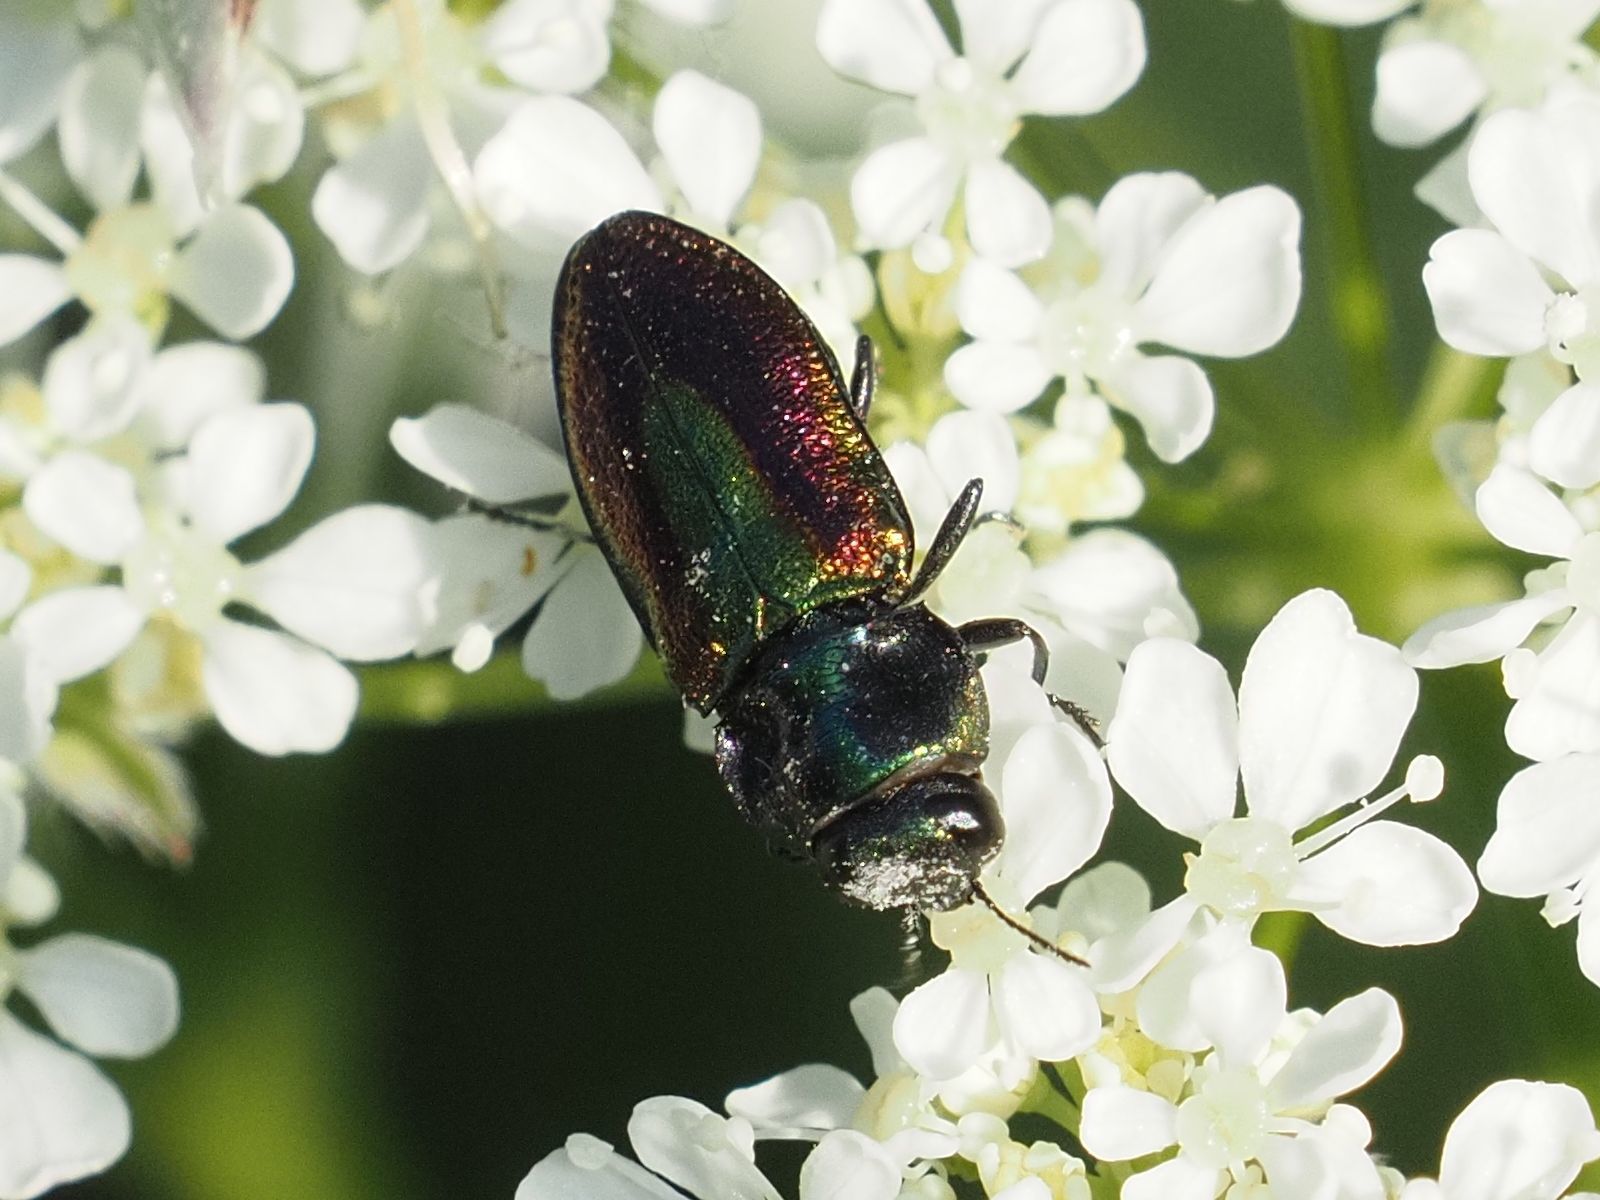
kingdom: Animalia
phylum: Arthropoda
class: Insecta
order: Coleoptera
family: Buprestidae
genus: Anthaxia
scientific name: Anthaxia fulgurans
